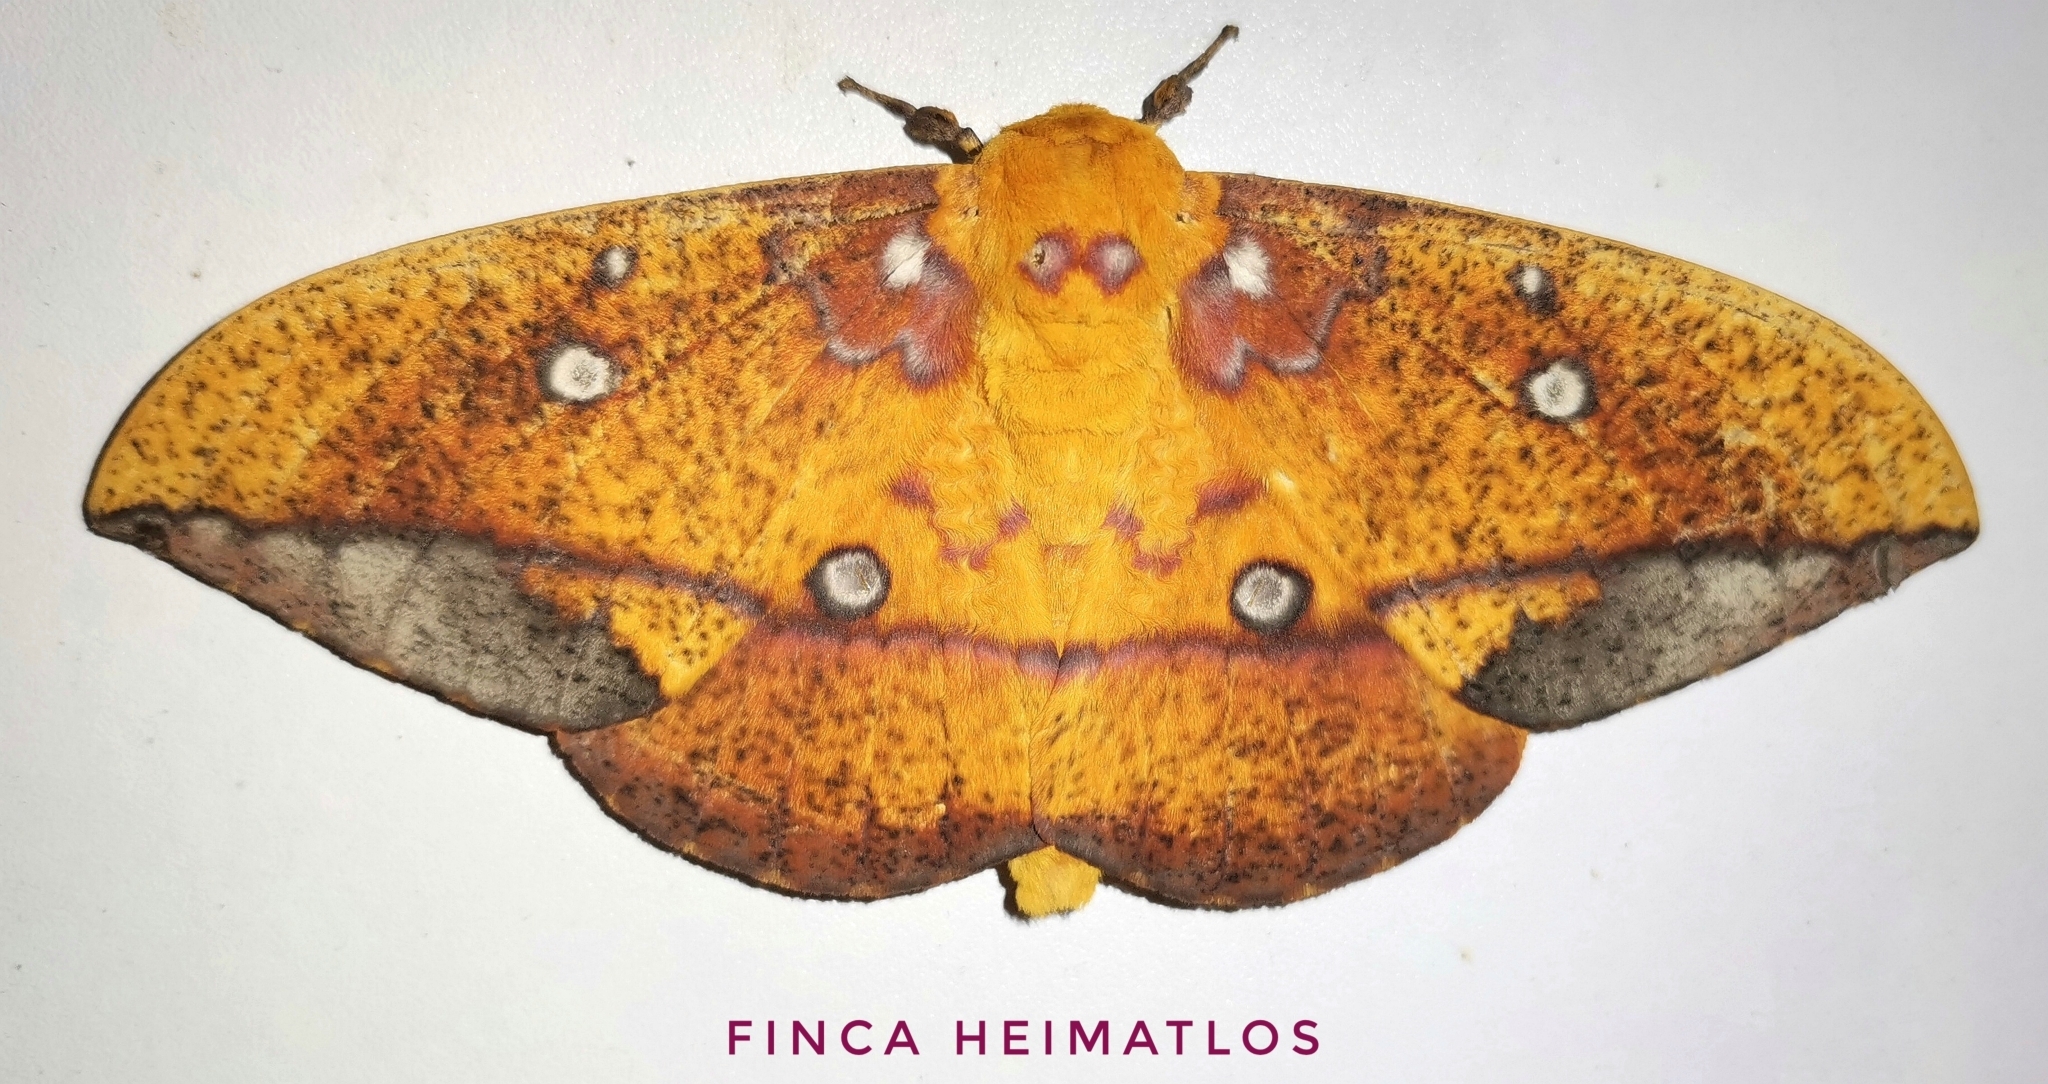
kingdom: Animalia
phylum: Arthropoda
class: Insecta
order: Lepidoptera
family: Saturniidae
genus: Eacles
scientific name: Eacles penelope
